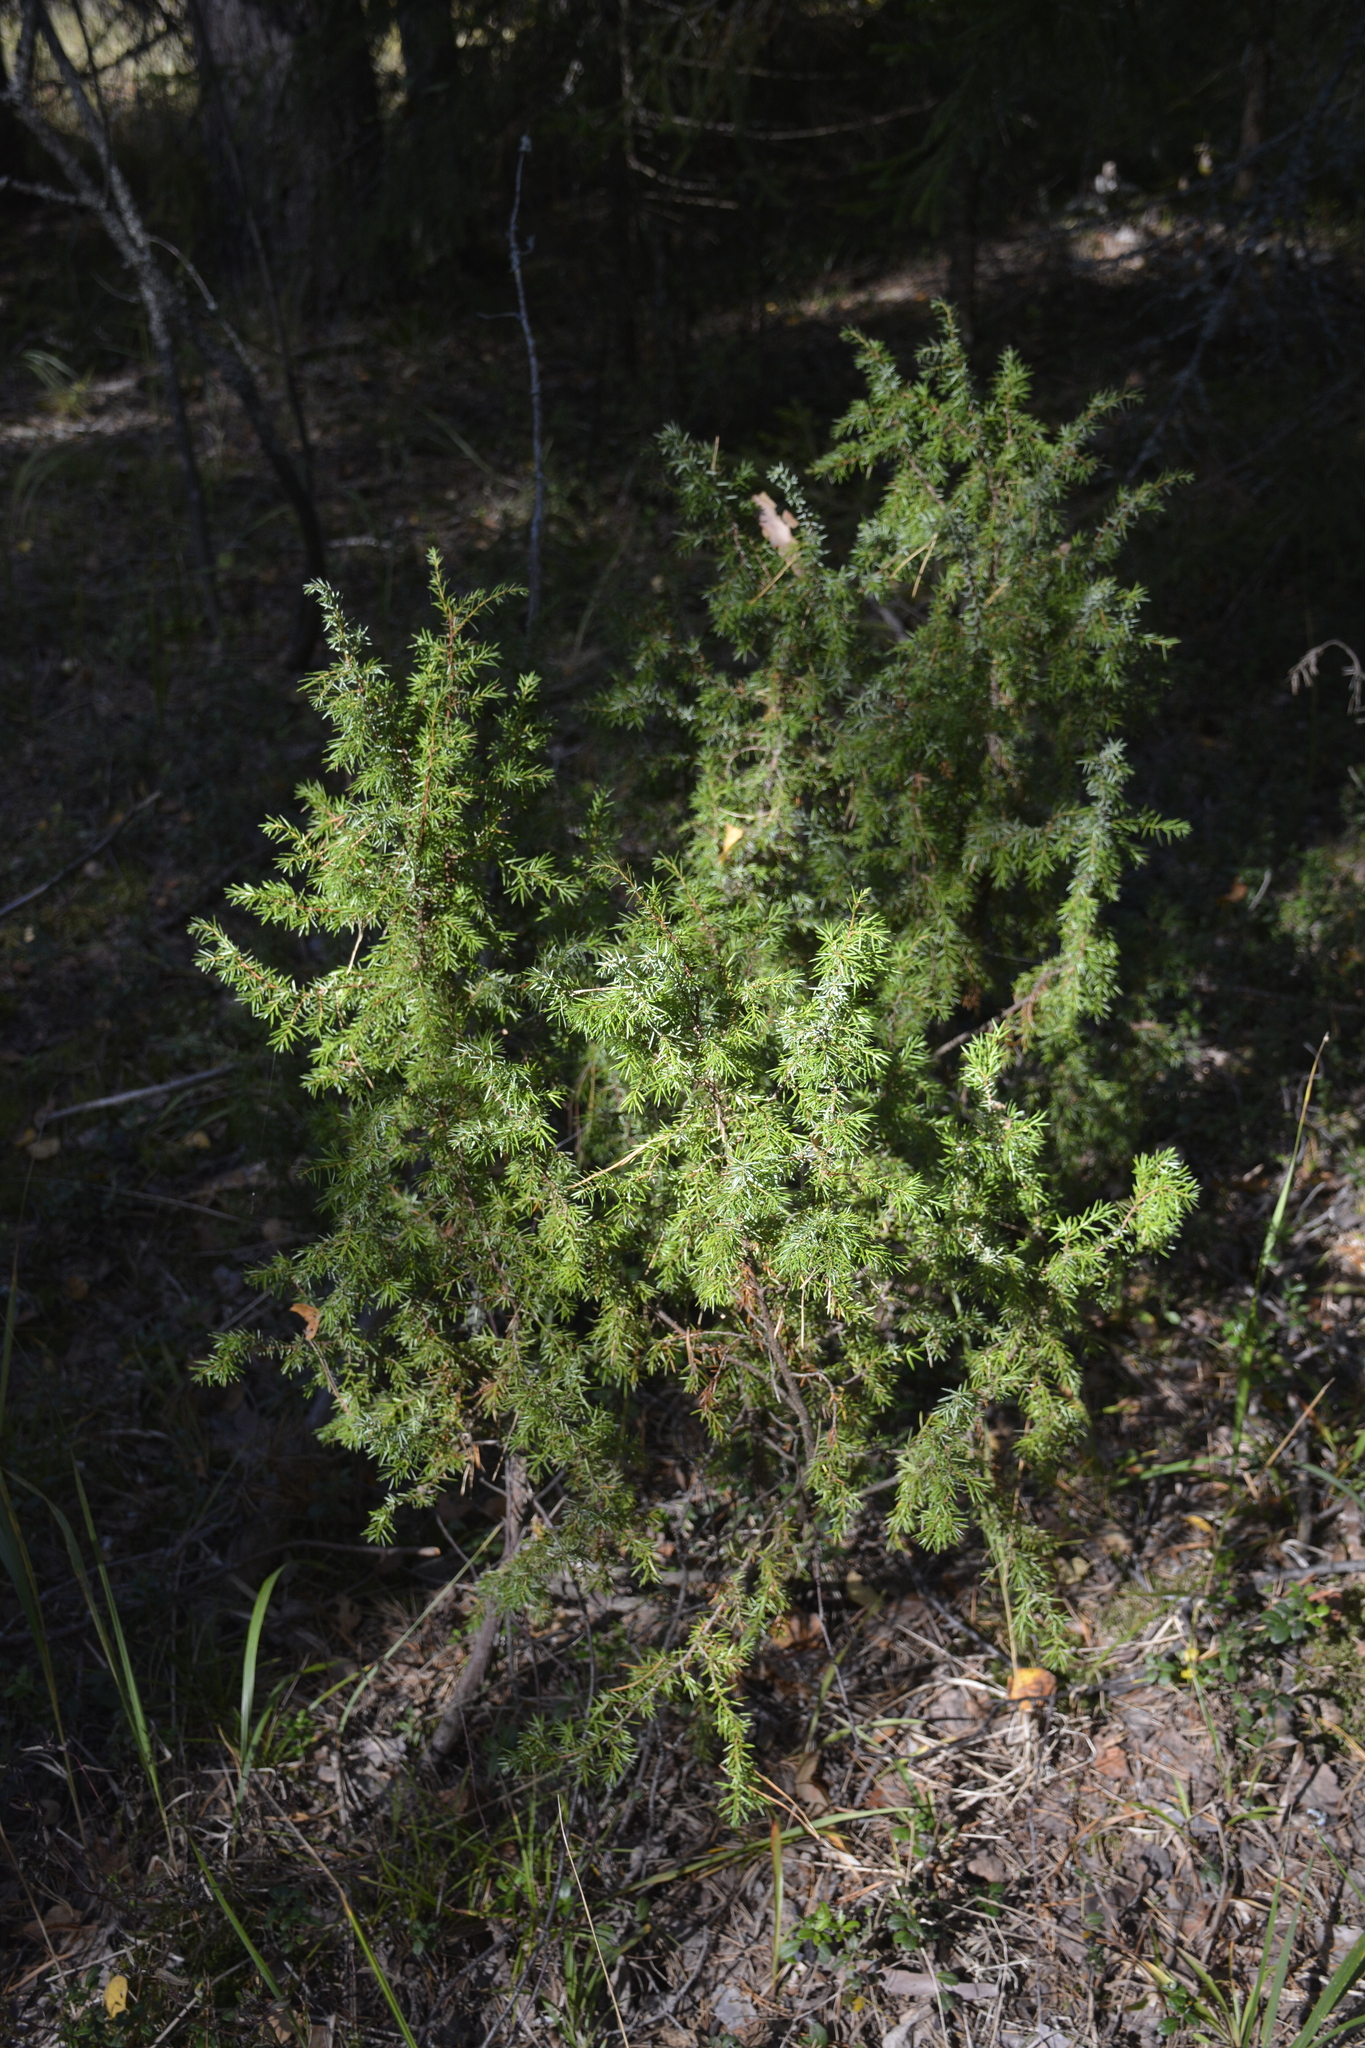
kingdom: Plantae
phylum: Tracheophyta
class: Pinopsida
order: Pinales
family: Cupressaceae
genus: Juniperus
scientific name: Juniperus communis
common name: Common juniper
